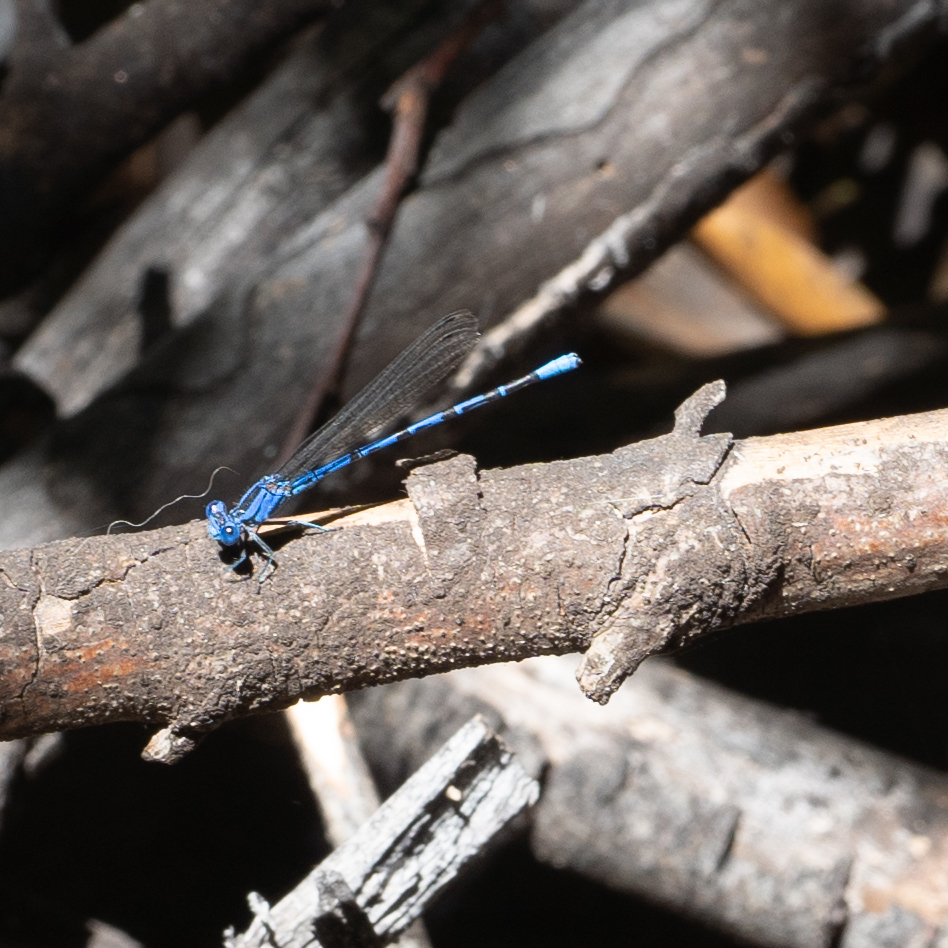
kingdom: Animalia
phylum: Arthropoda
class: Insecta
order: Odonata
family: Coenagrionidae
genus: Argia
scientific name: Argia vivida
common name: Vivid dancer
